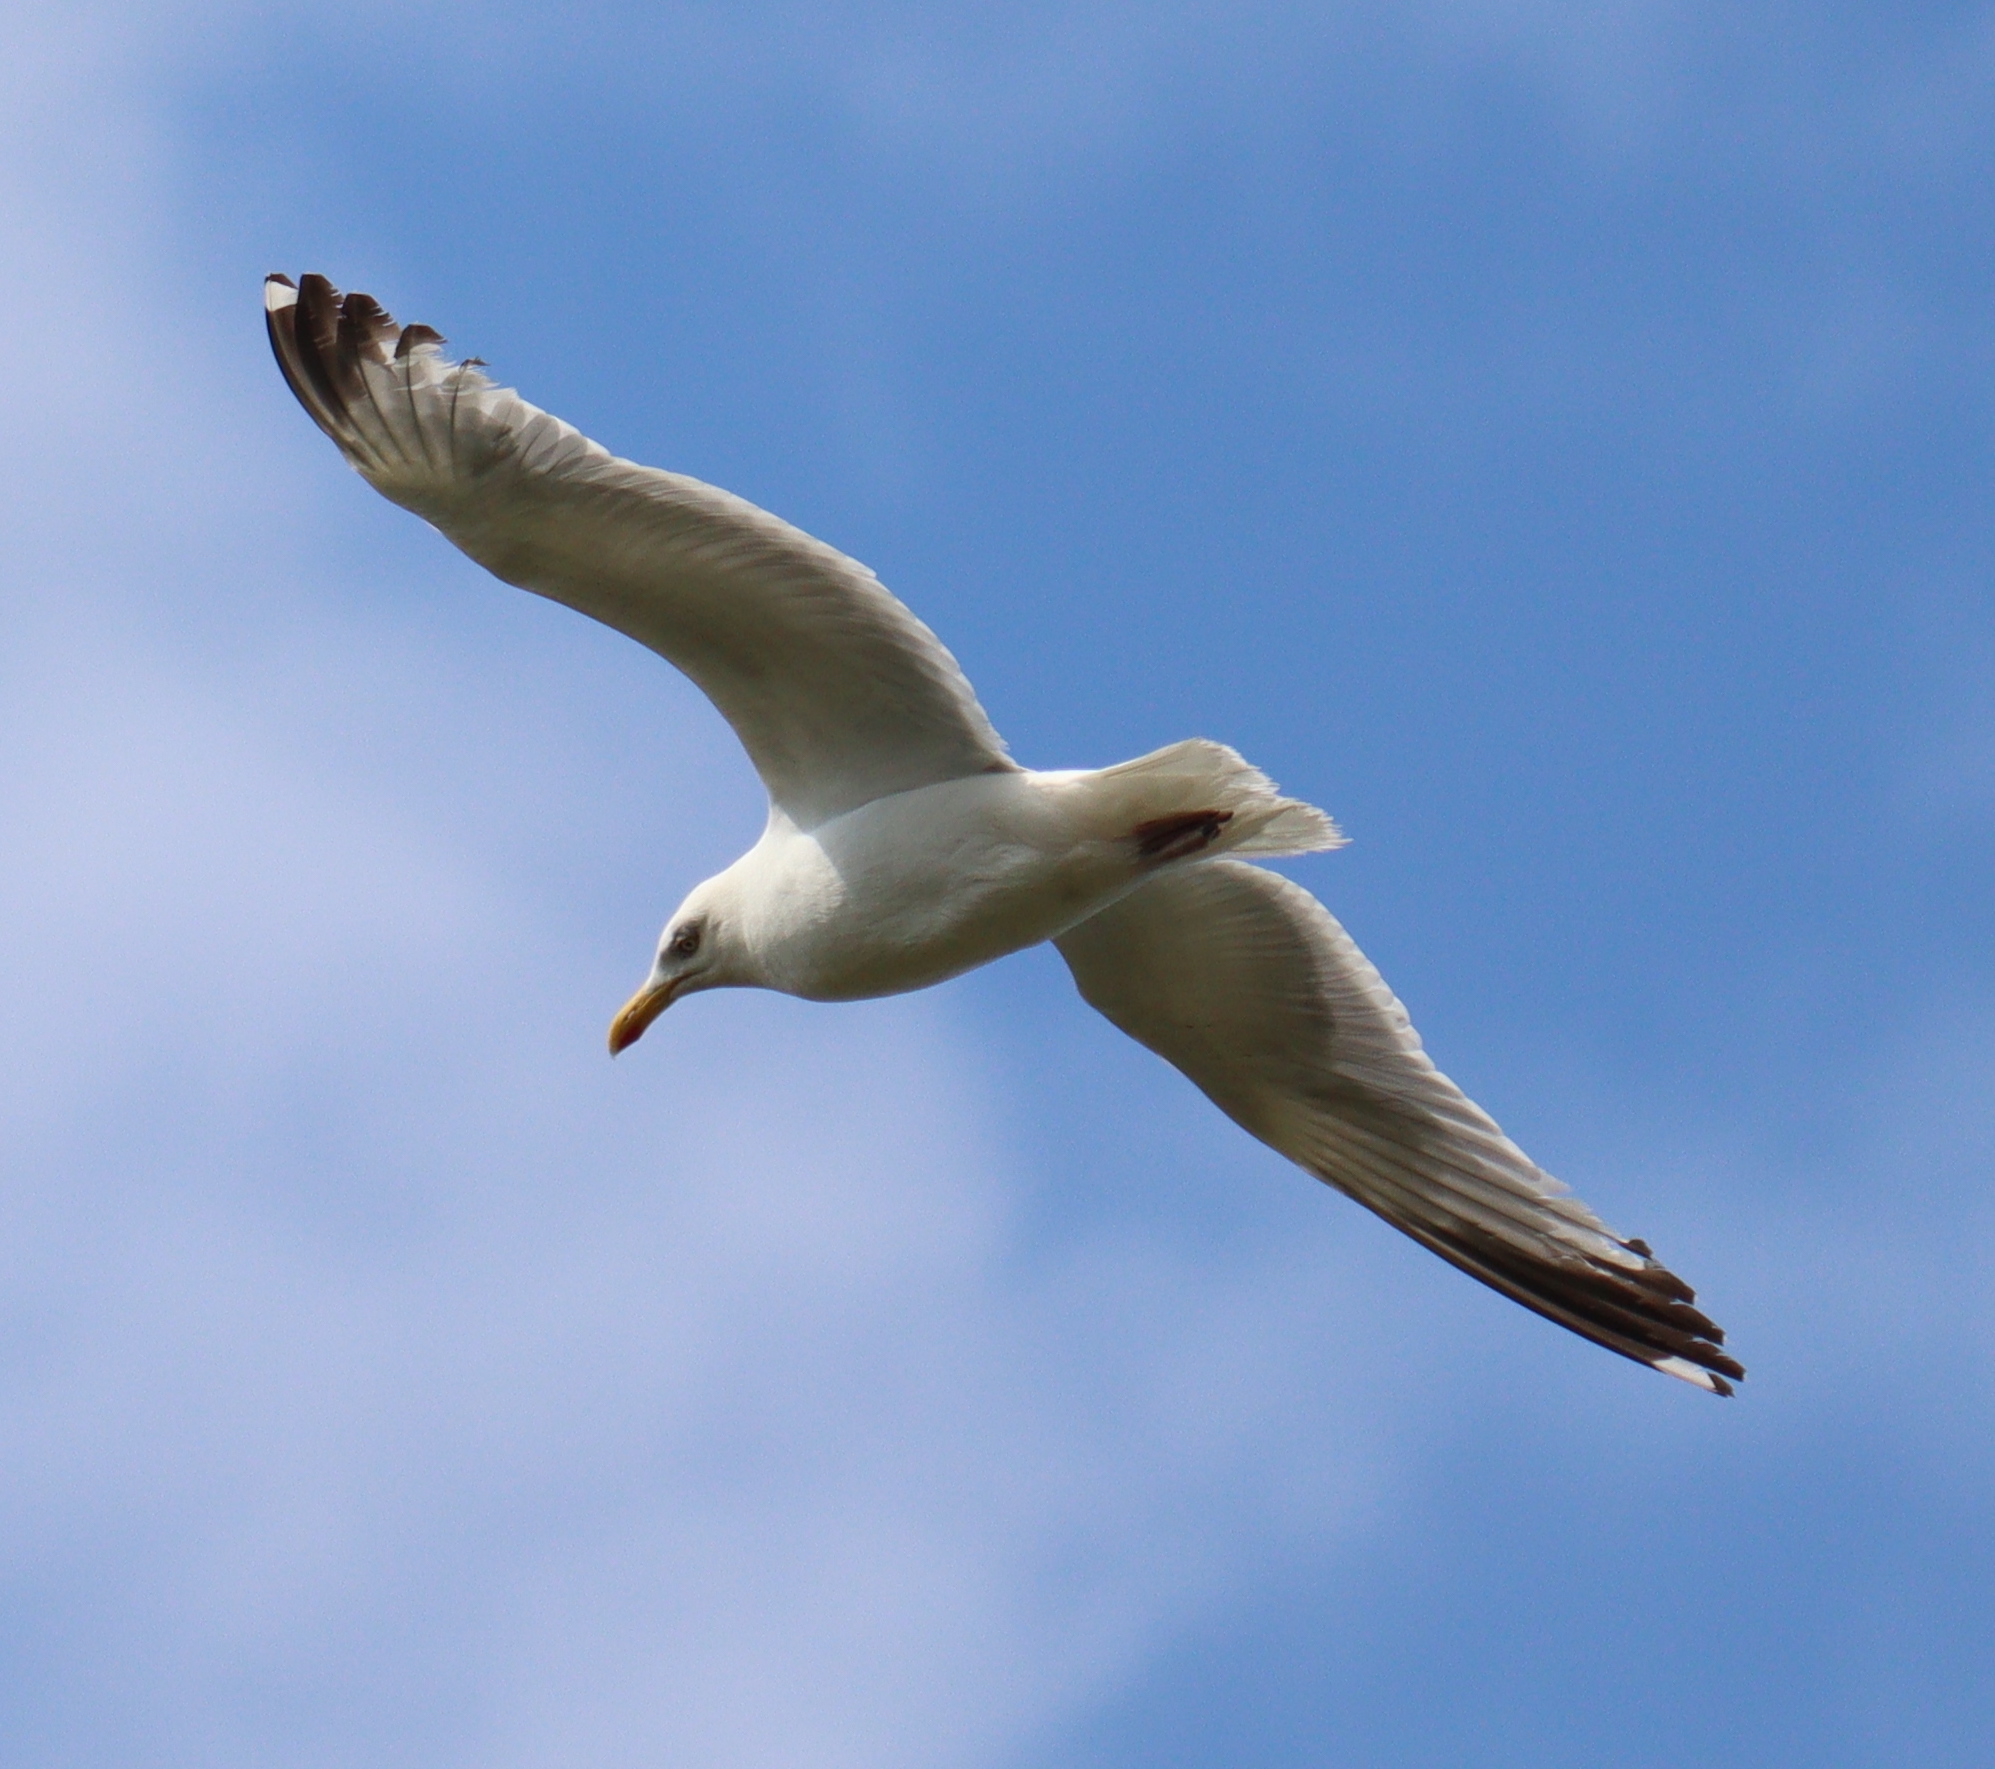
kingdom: Animalia
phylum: Chordata
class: Aves
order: Charadriiformes
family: Laridae
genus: Larus
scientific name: Larus argentatus
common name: Herring gull
